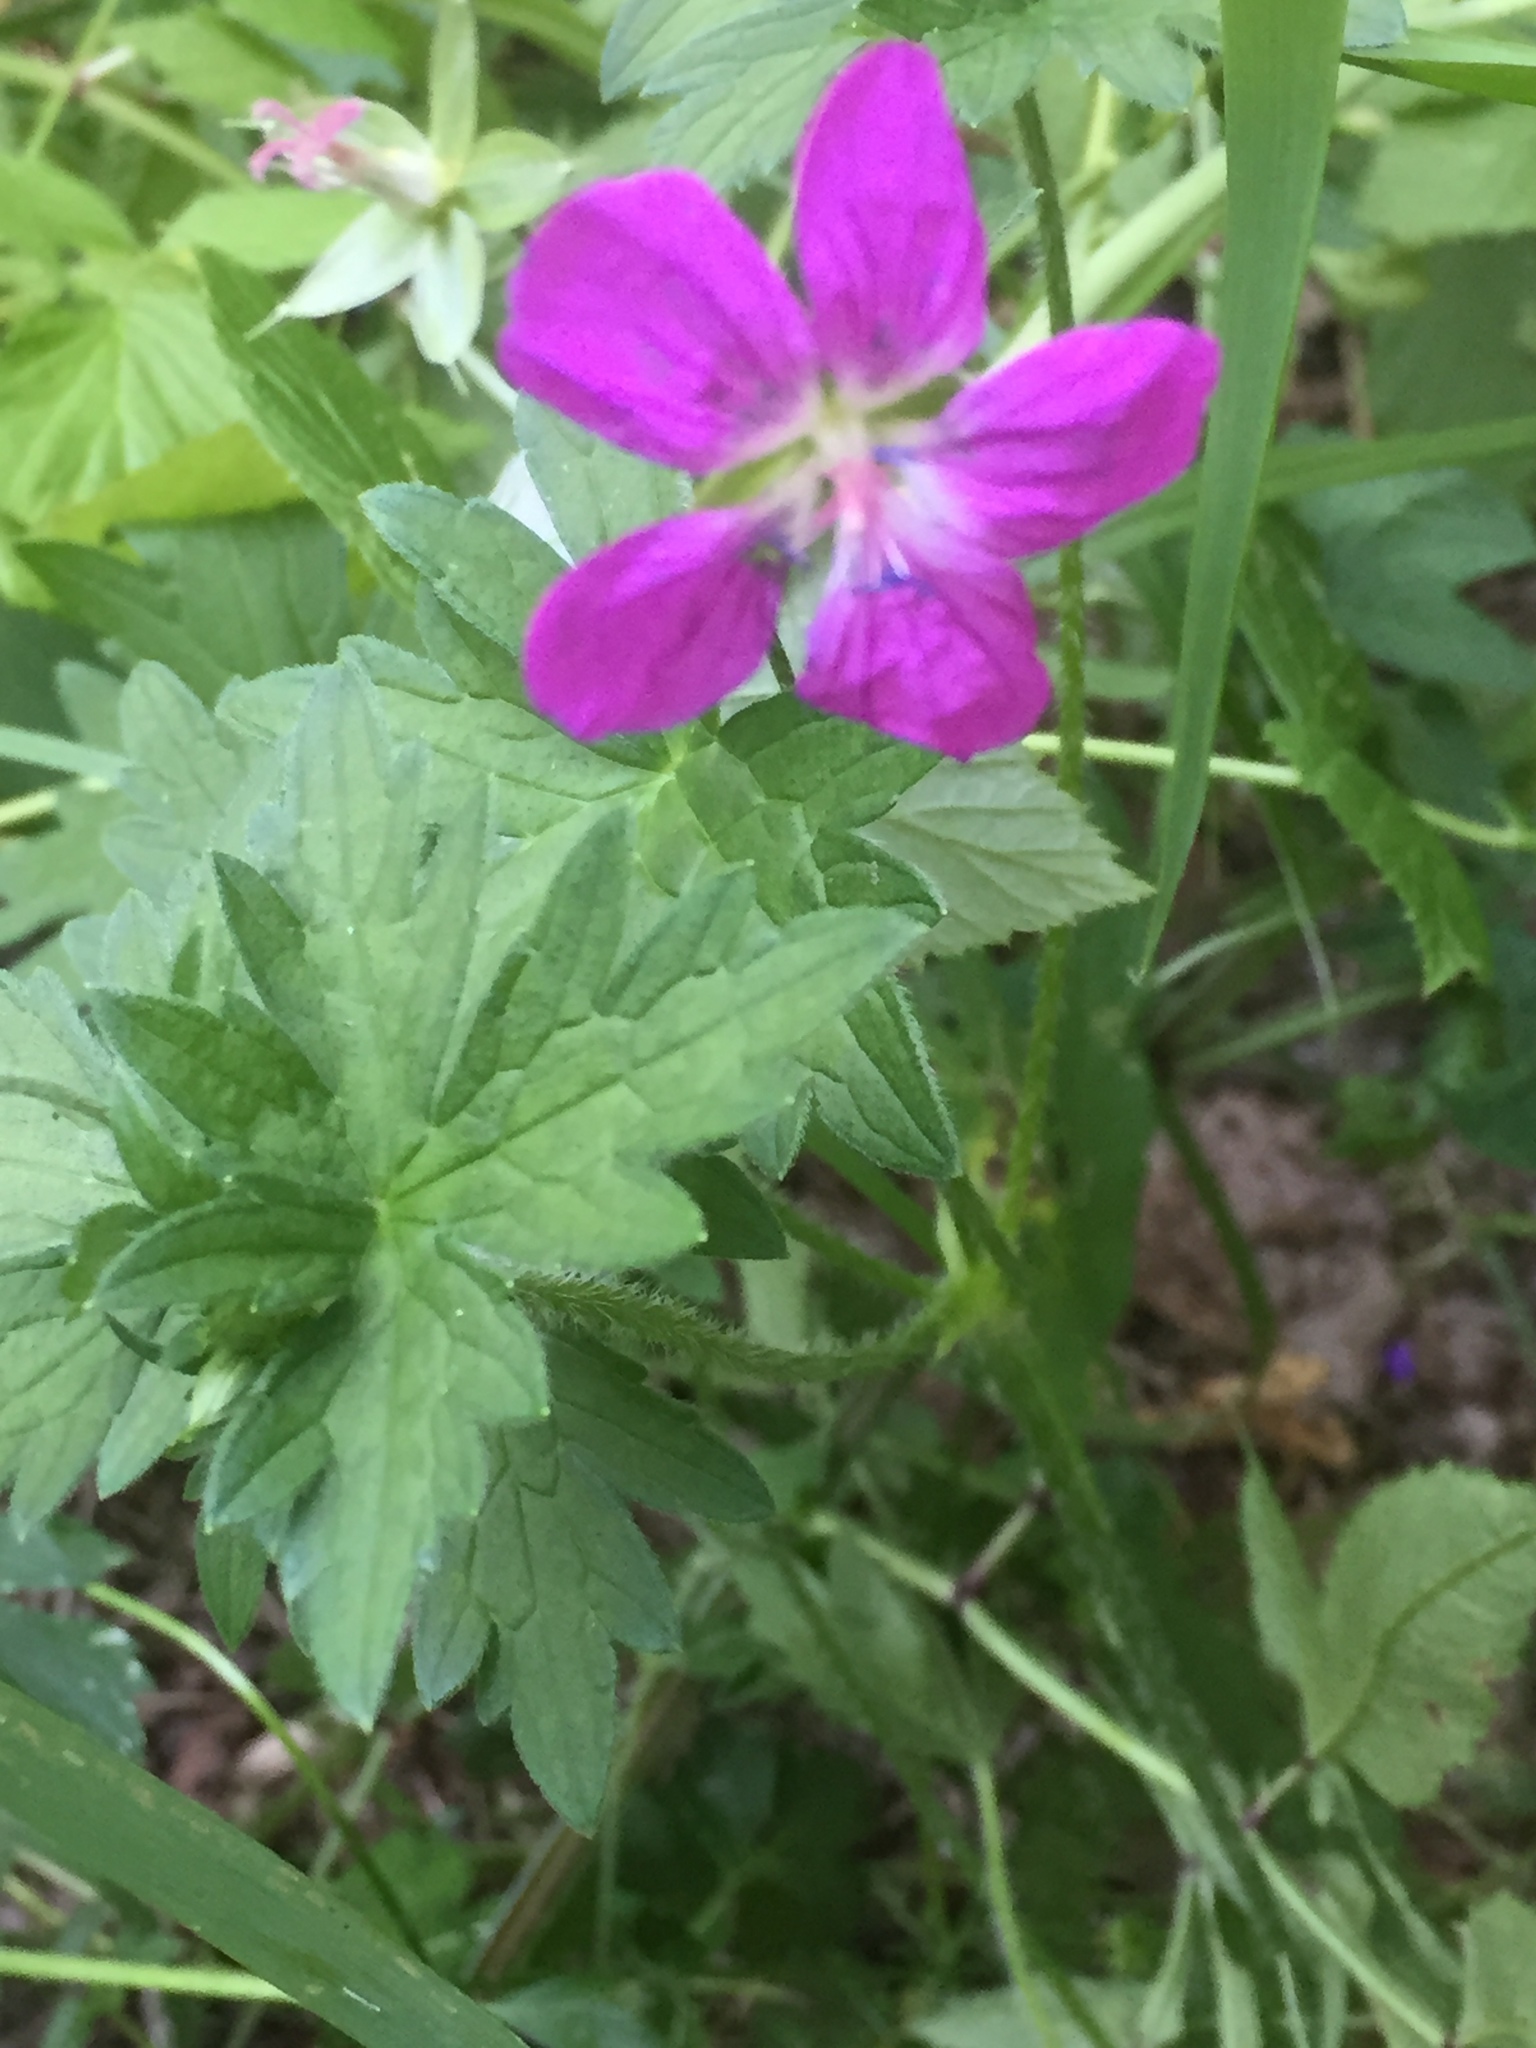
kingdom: Plantae
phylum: Tracheophyta
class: Magnoliopsida
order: Geraniales
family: Geraniaceae
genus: Geranium
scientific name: Geranium palustre
